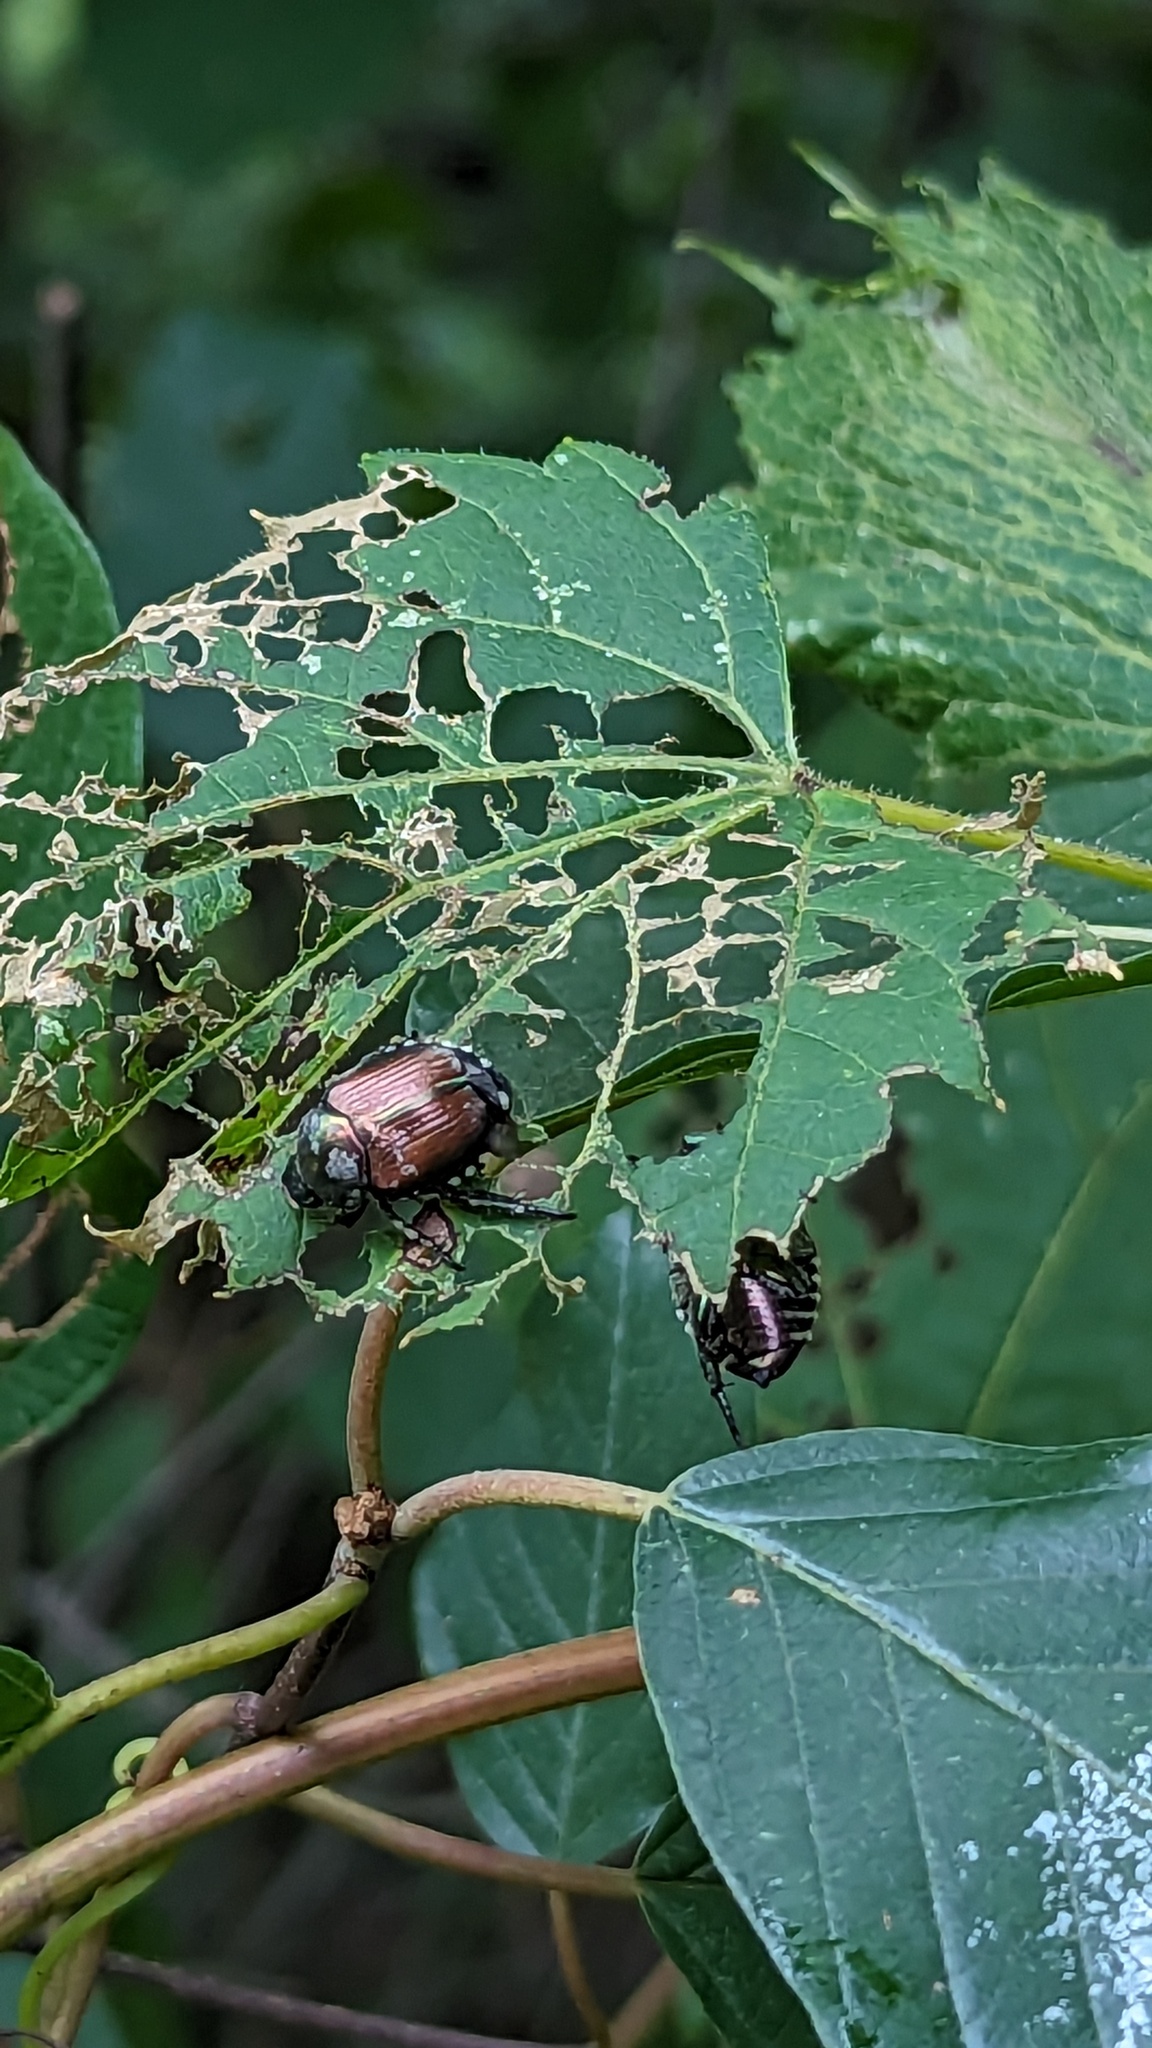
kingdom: Animalia
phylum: Arthropoda
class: Insecta
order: Coleoptera
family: Scarabaeidae
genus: Popillia
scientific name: Popillia japonica
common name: Japanese beetle
